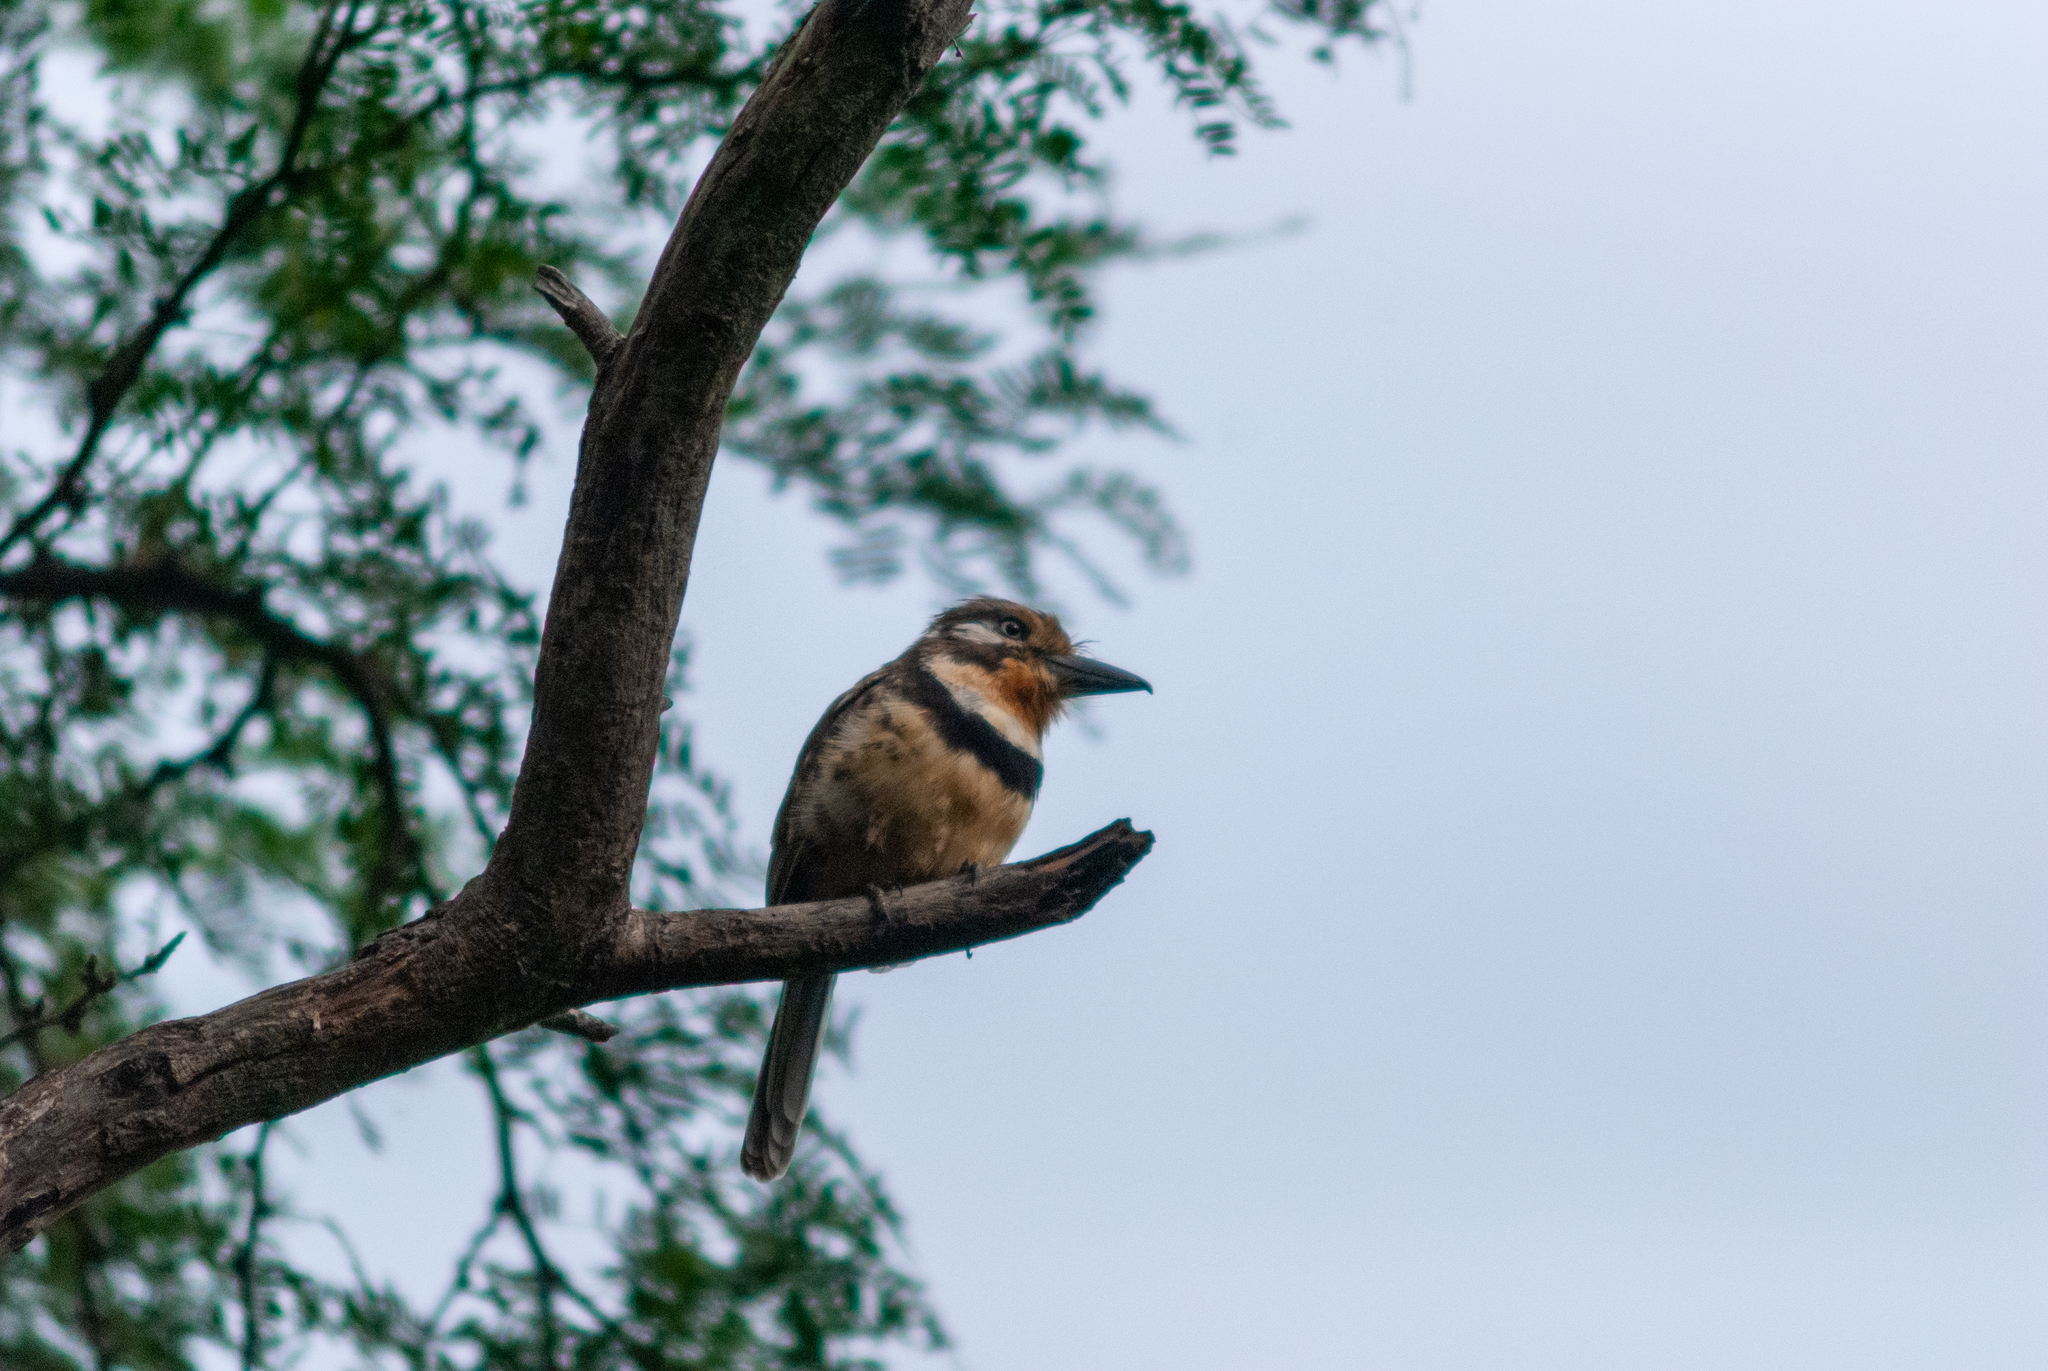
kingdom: Animalia
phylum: Chordata
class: Aves
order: Piciformes
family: Bucconidae
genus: Hypnelus
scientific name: Hypnelus ruficollis
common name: Russet-throated puffbird
